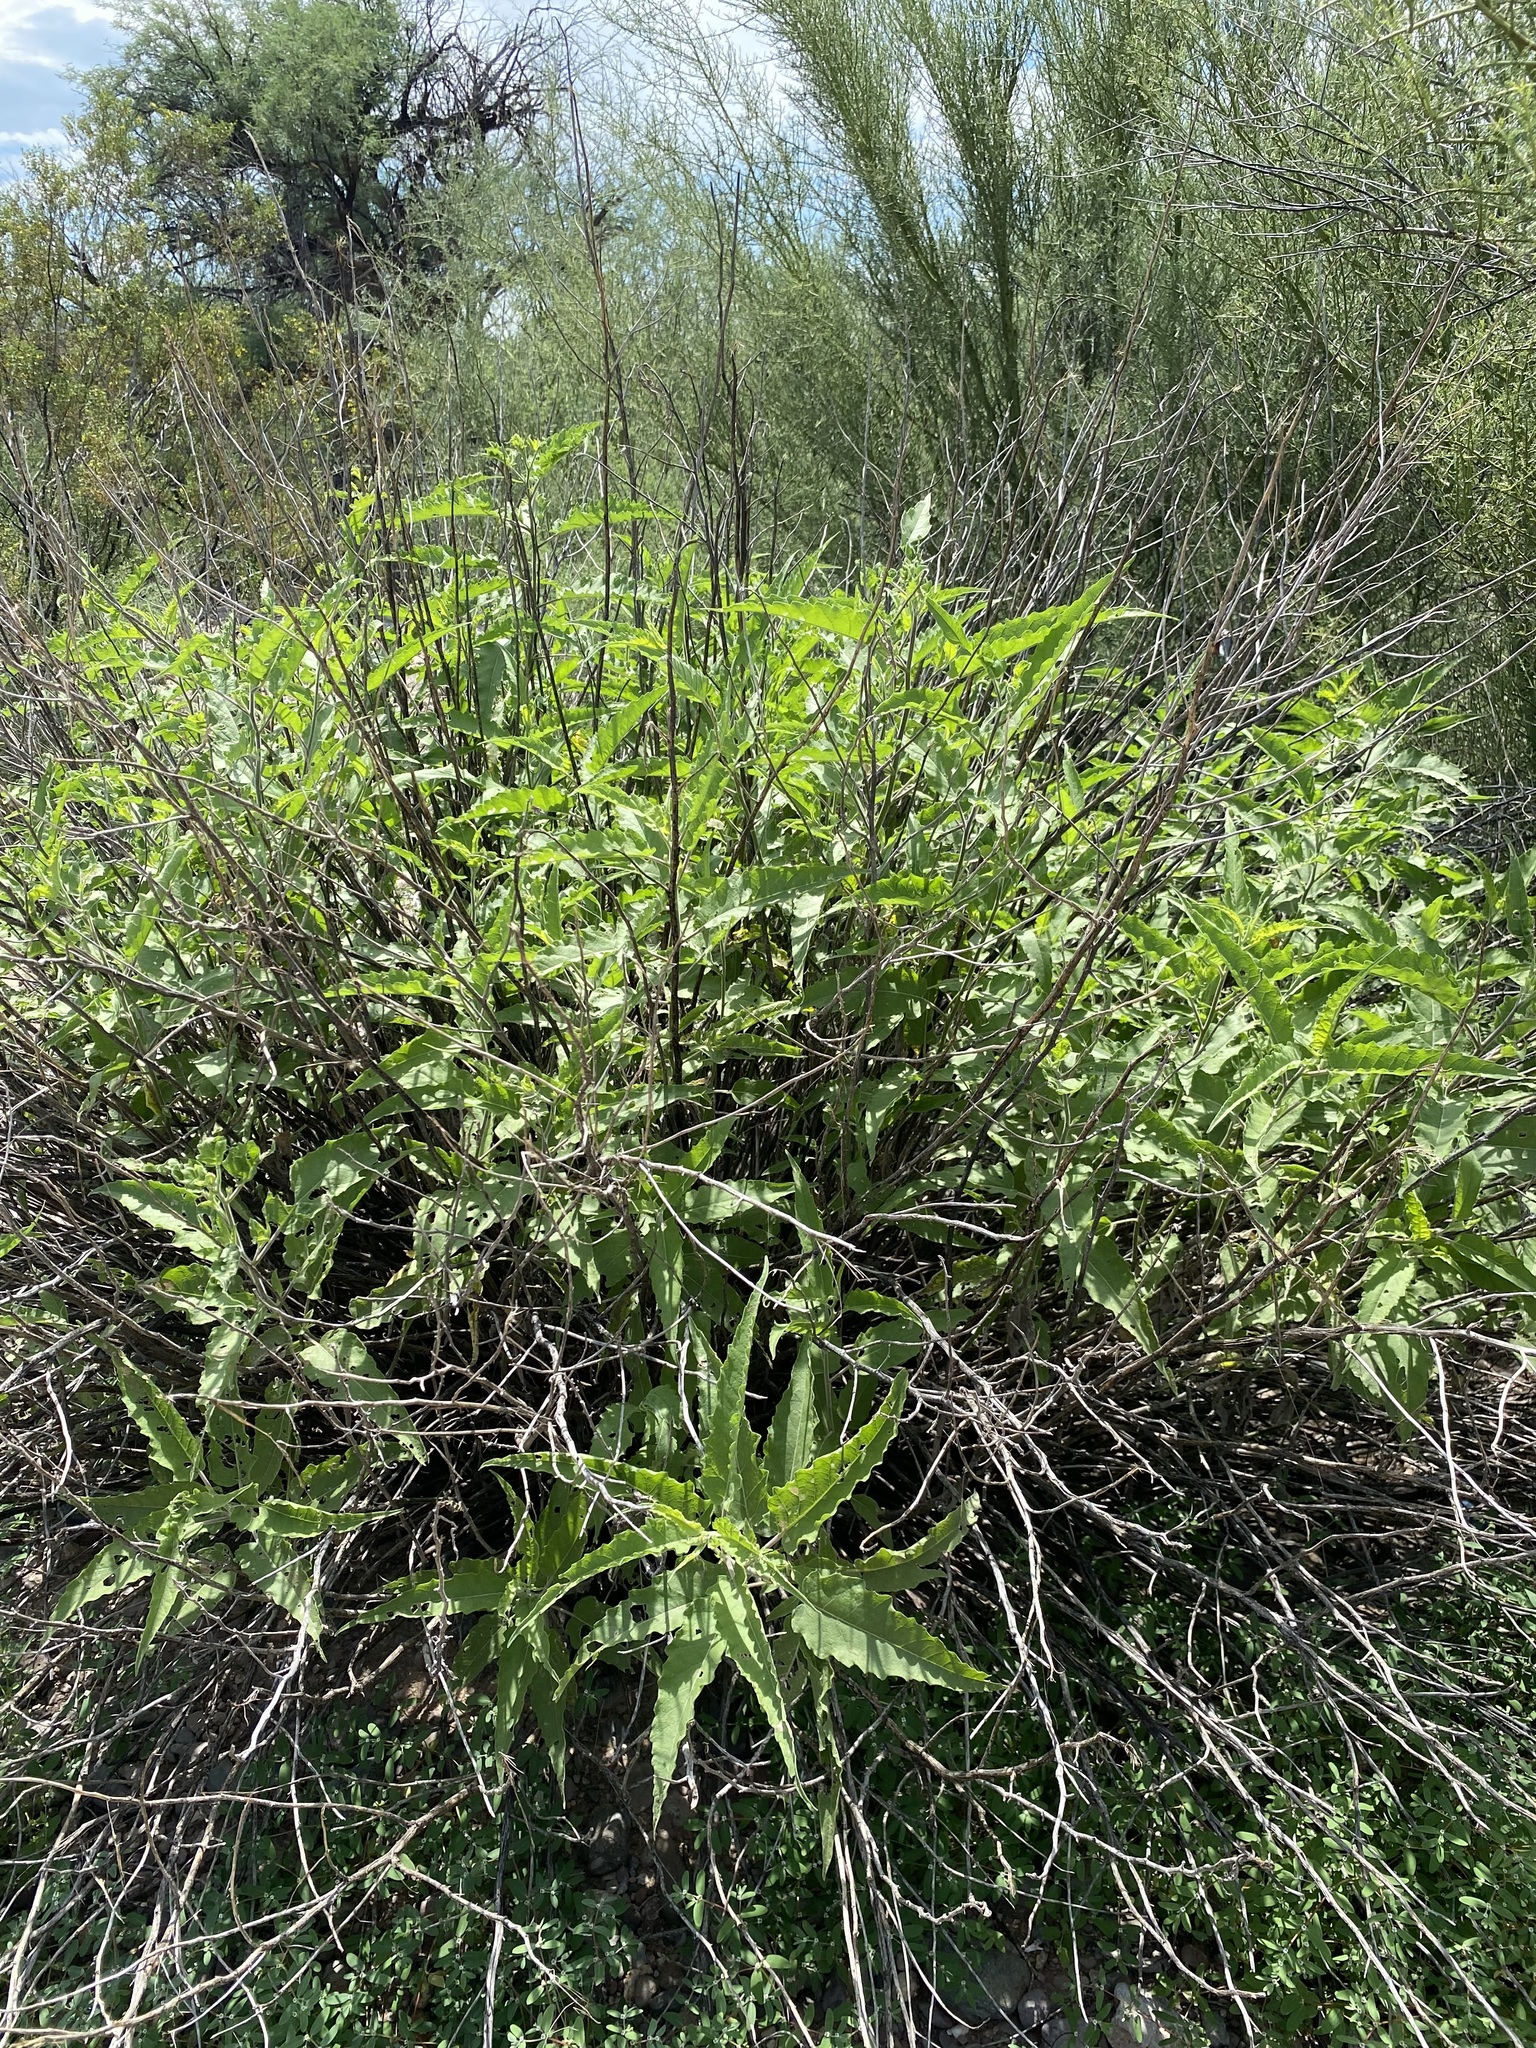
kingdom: Plantae
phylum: Tracheophyta
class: Magnoliopsida
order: Asterales
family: Asteraceae
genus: Ambrosia
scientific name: Ambrosia ambrosioides
